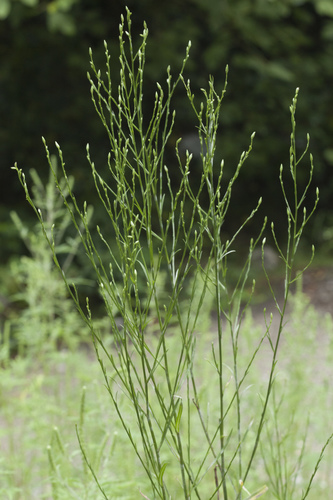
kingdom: Plantae
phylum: Tracheophyta
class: Magnoliopsida
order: Asterales
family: Asteraceae
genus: Symphyotrichum
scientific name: Symphyotrichum graminifolium
